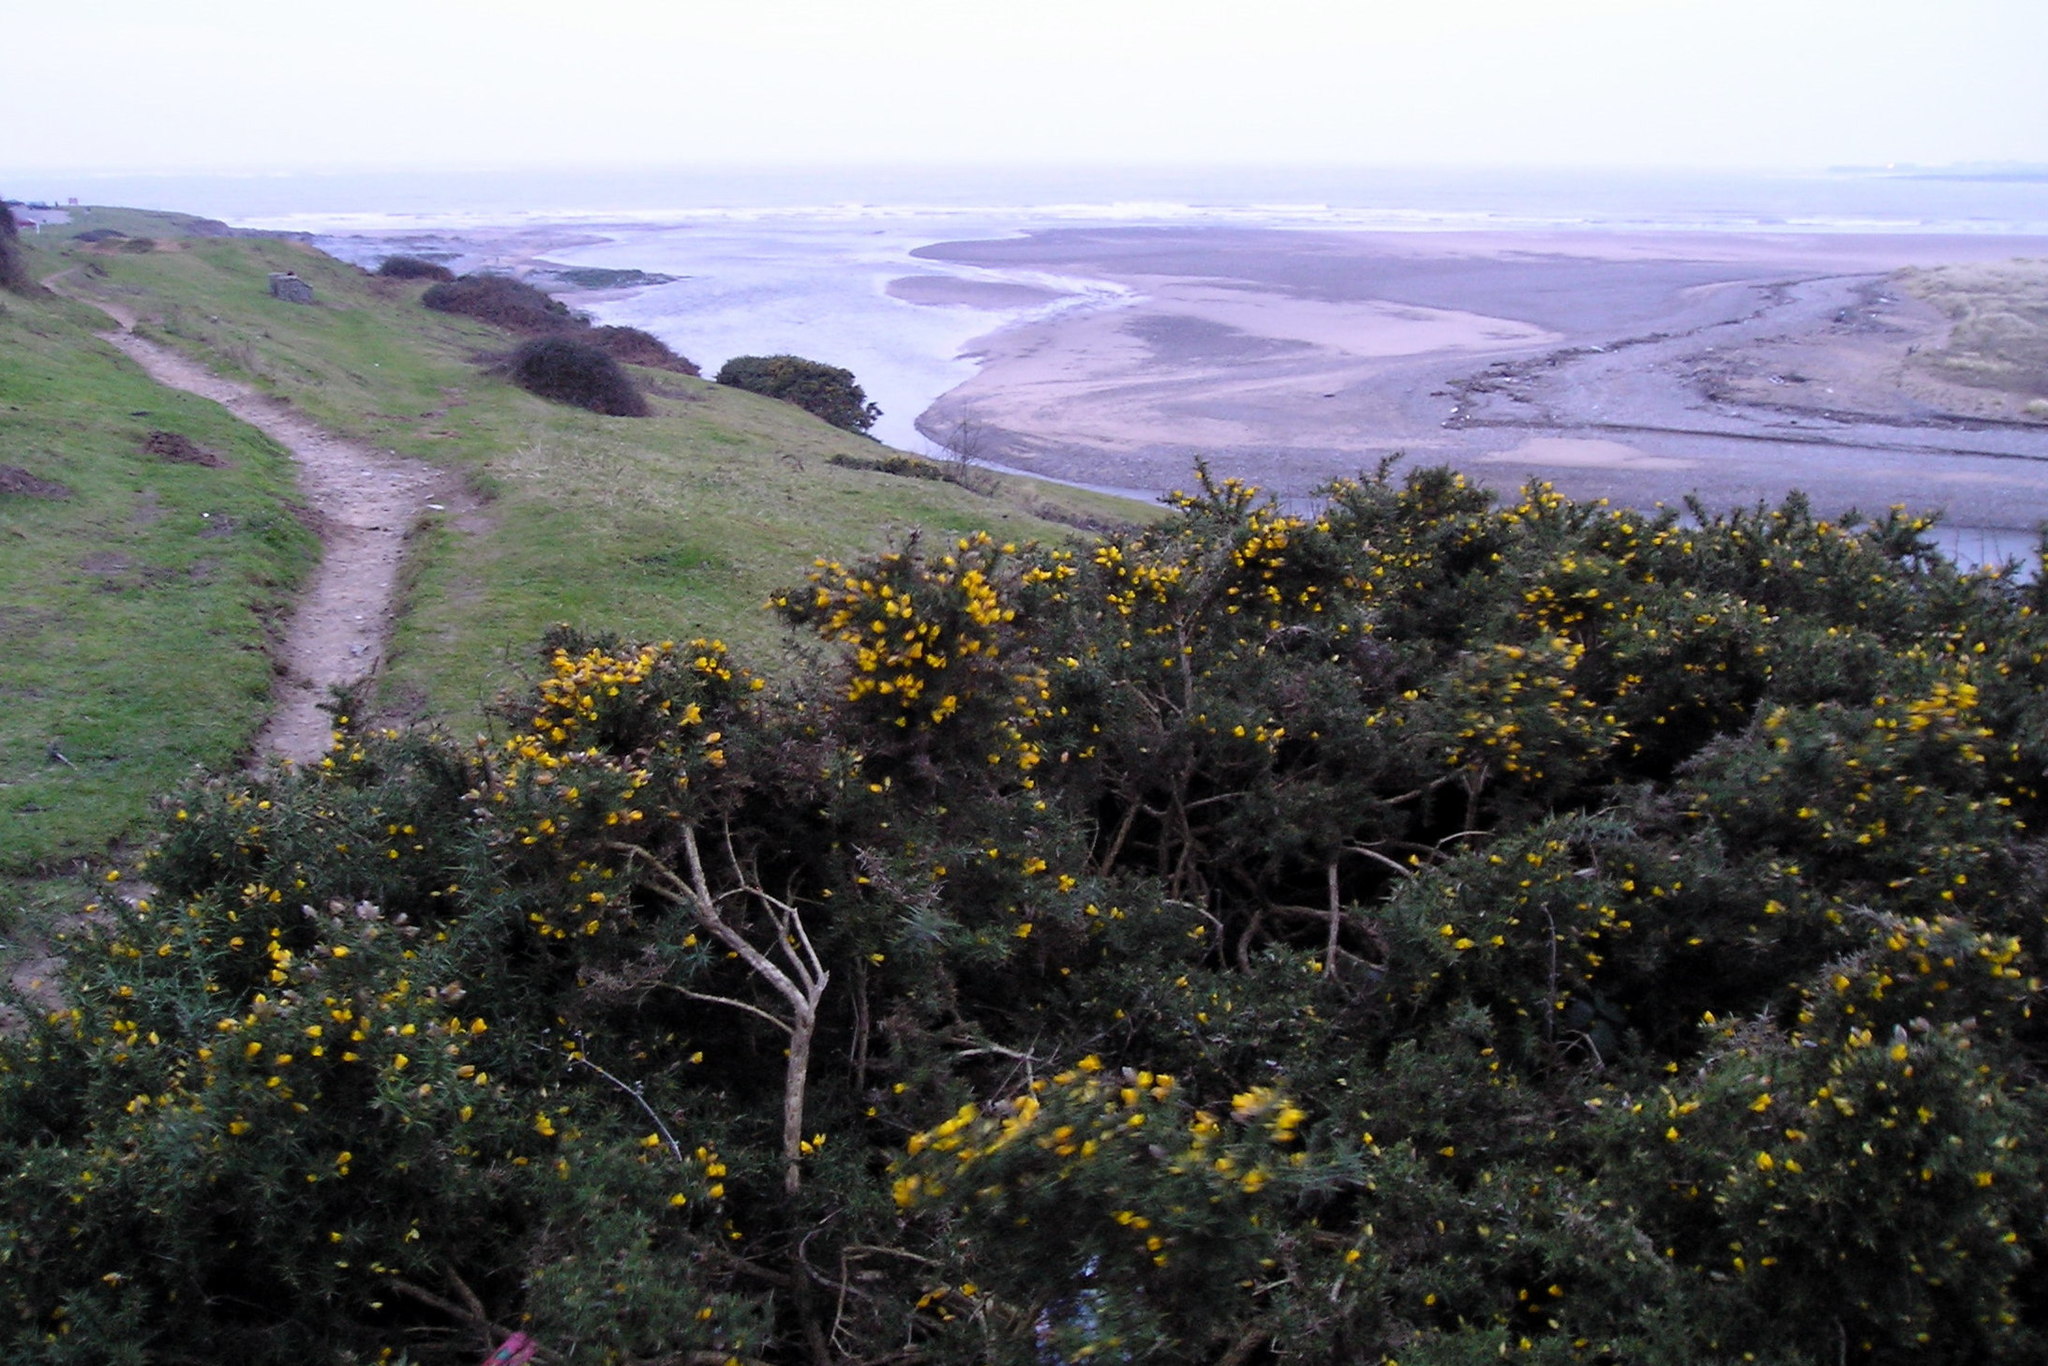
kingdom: Plantae
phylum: Tracheophyta
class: Magnoliopsida
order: Fabales
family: Fabaceae
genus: Ulex
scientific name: Ulex europaeus
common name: Common gorse
